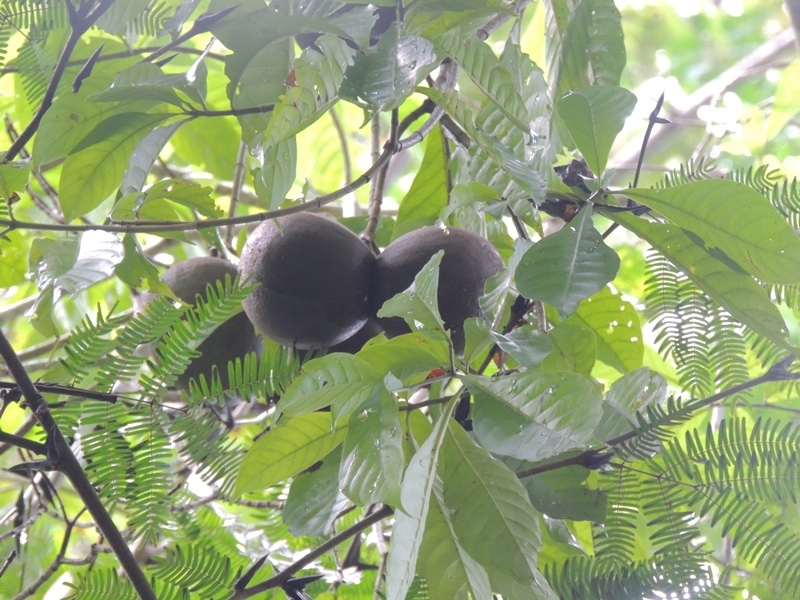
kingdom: Plantae
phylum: Tracheophyta
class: Magnoliopsida
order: Gentianales
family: Apocynaceae
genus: Tabernaemontana
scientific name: Tabernaemontana donnell-smithii
